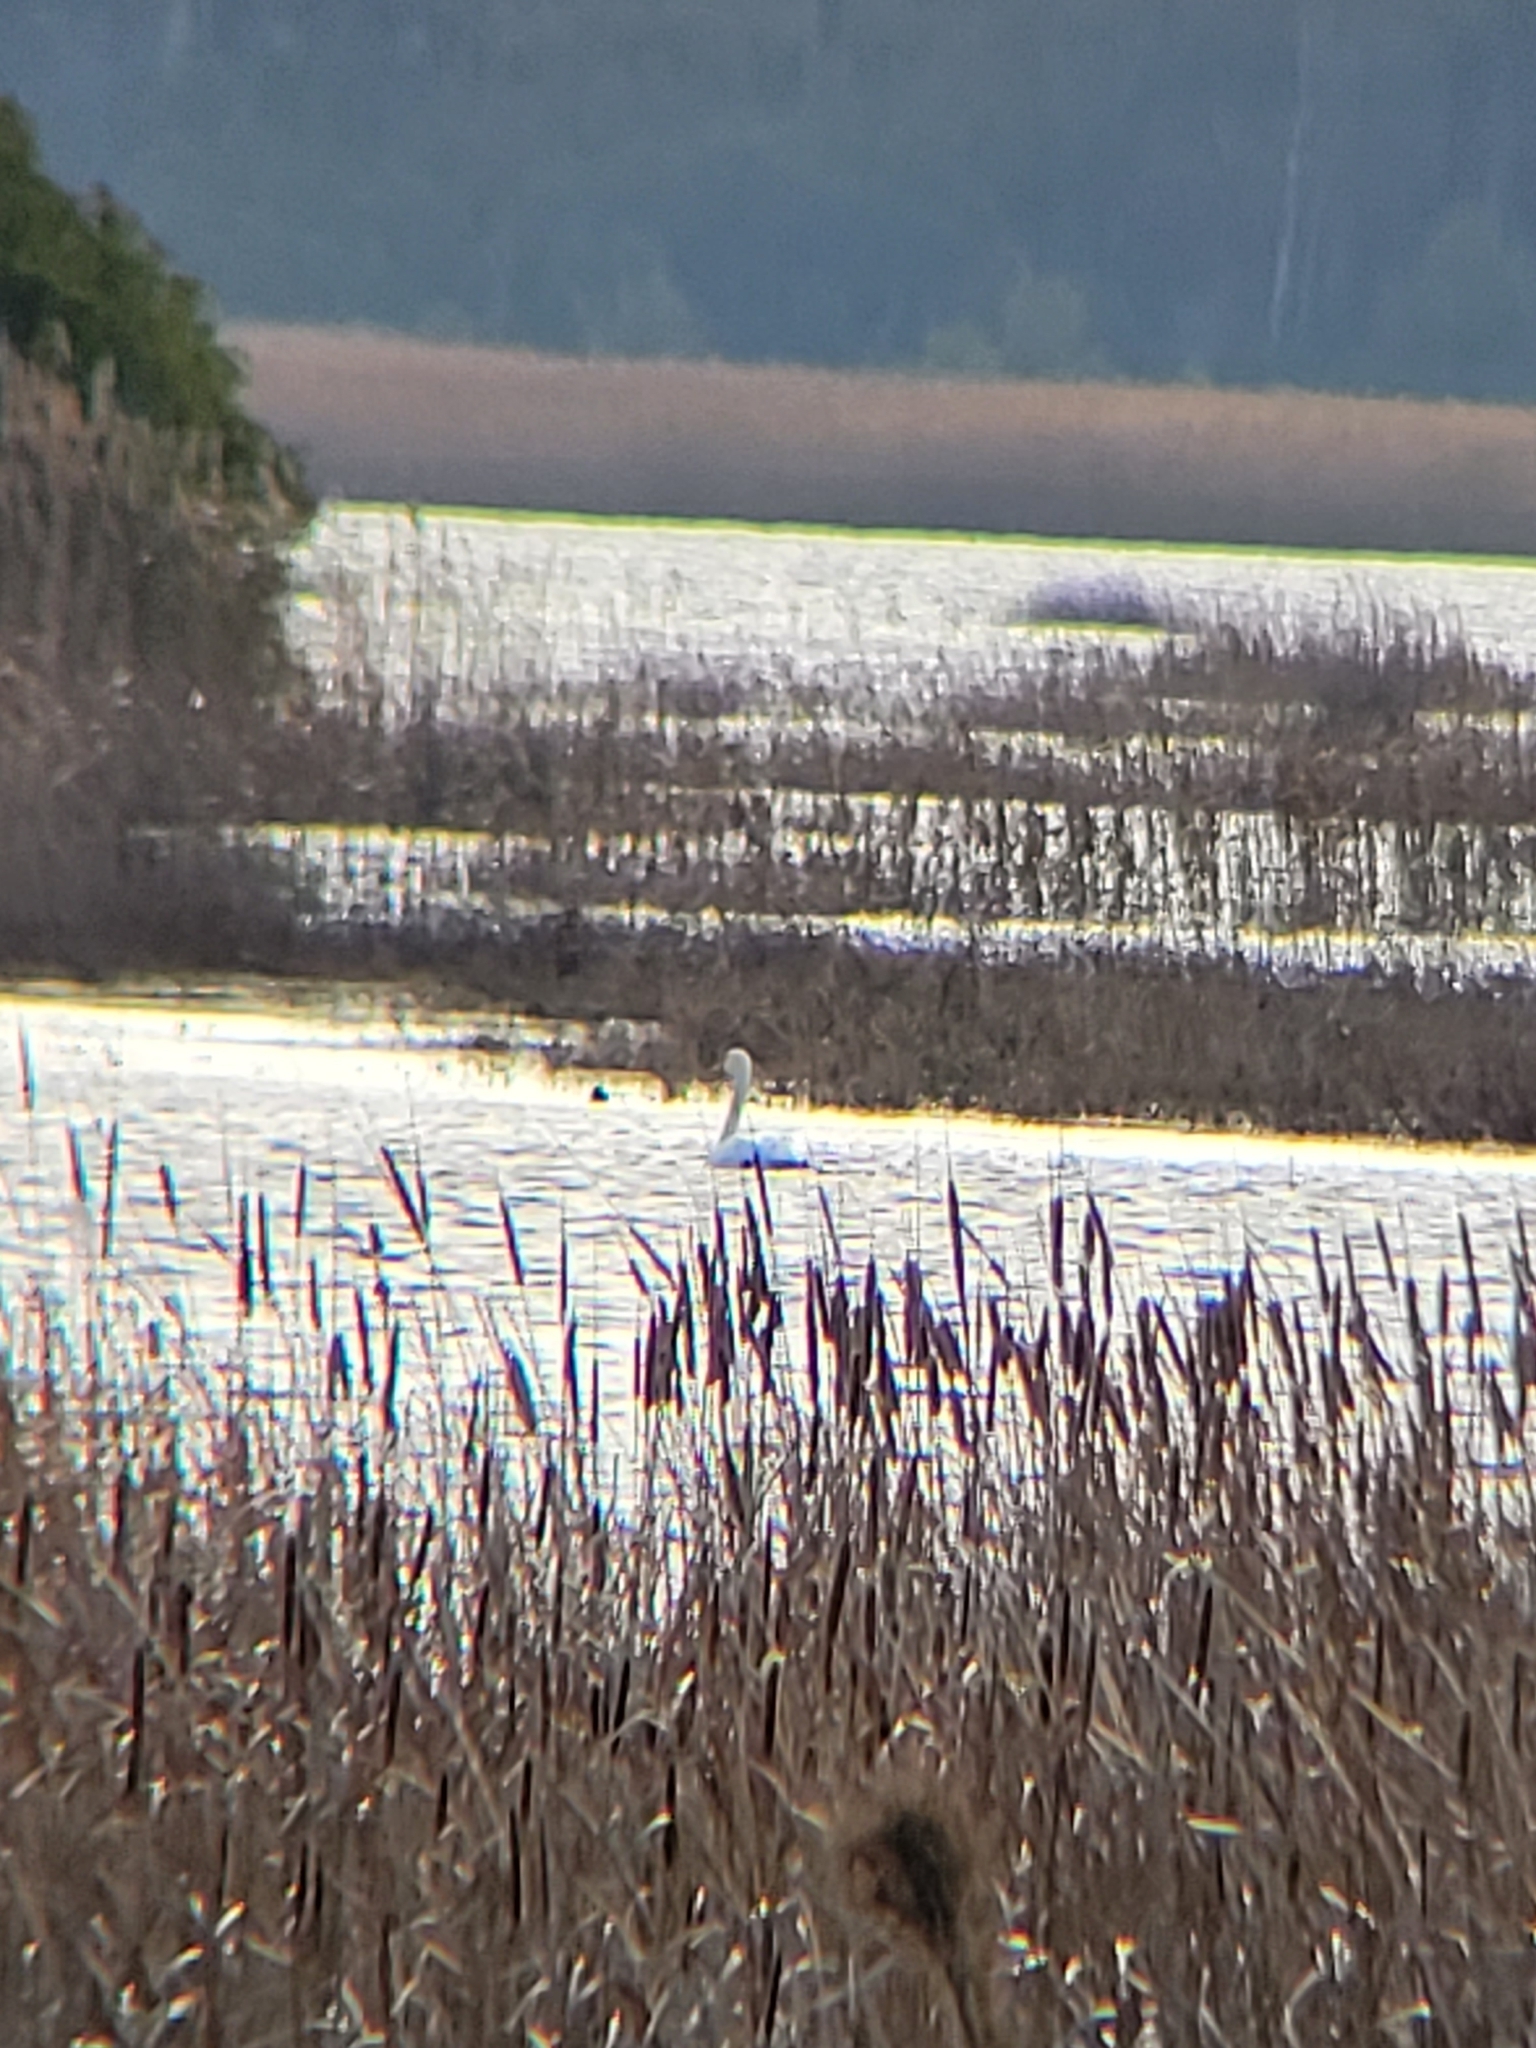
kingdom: Animalia
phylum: Chordata
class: Aves
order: Anseriformes
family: Anatidae
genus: Cygnus
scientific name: Cygnus columbianus
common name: Tundra swan
